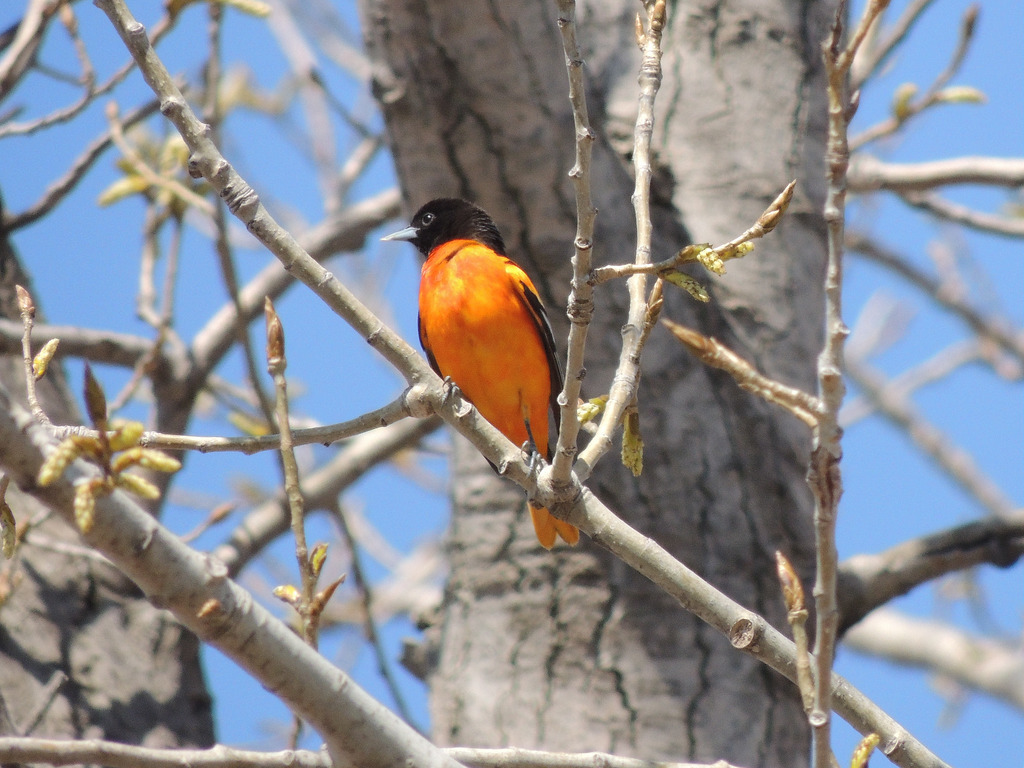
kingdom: Animalia
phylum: Chordata
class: Aves
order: Passeriformes
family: Icteridae
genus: Icterus
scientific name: Icterus galbula
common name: Baltimore oriole
